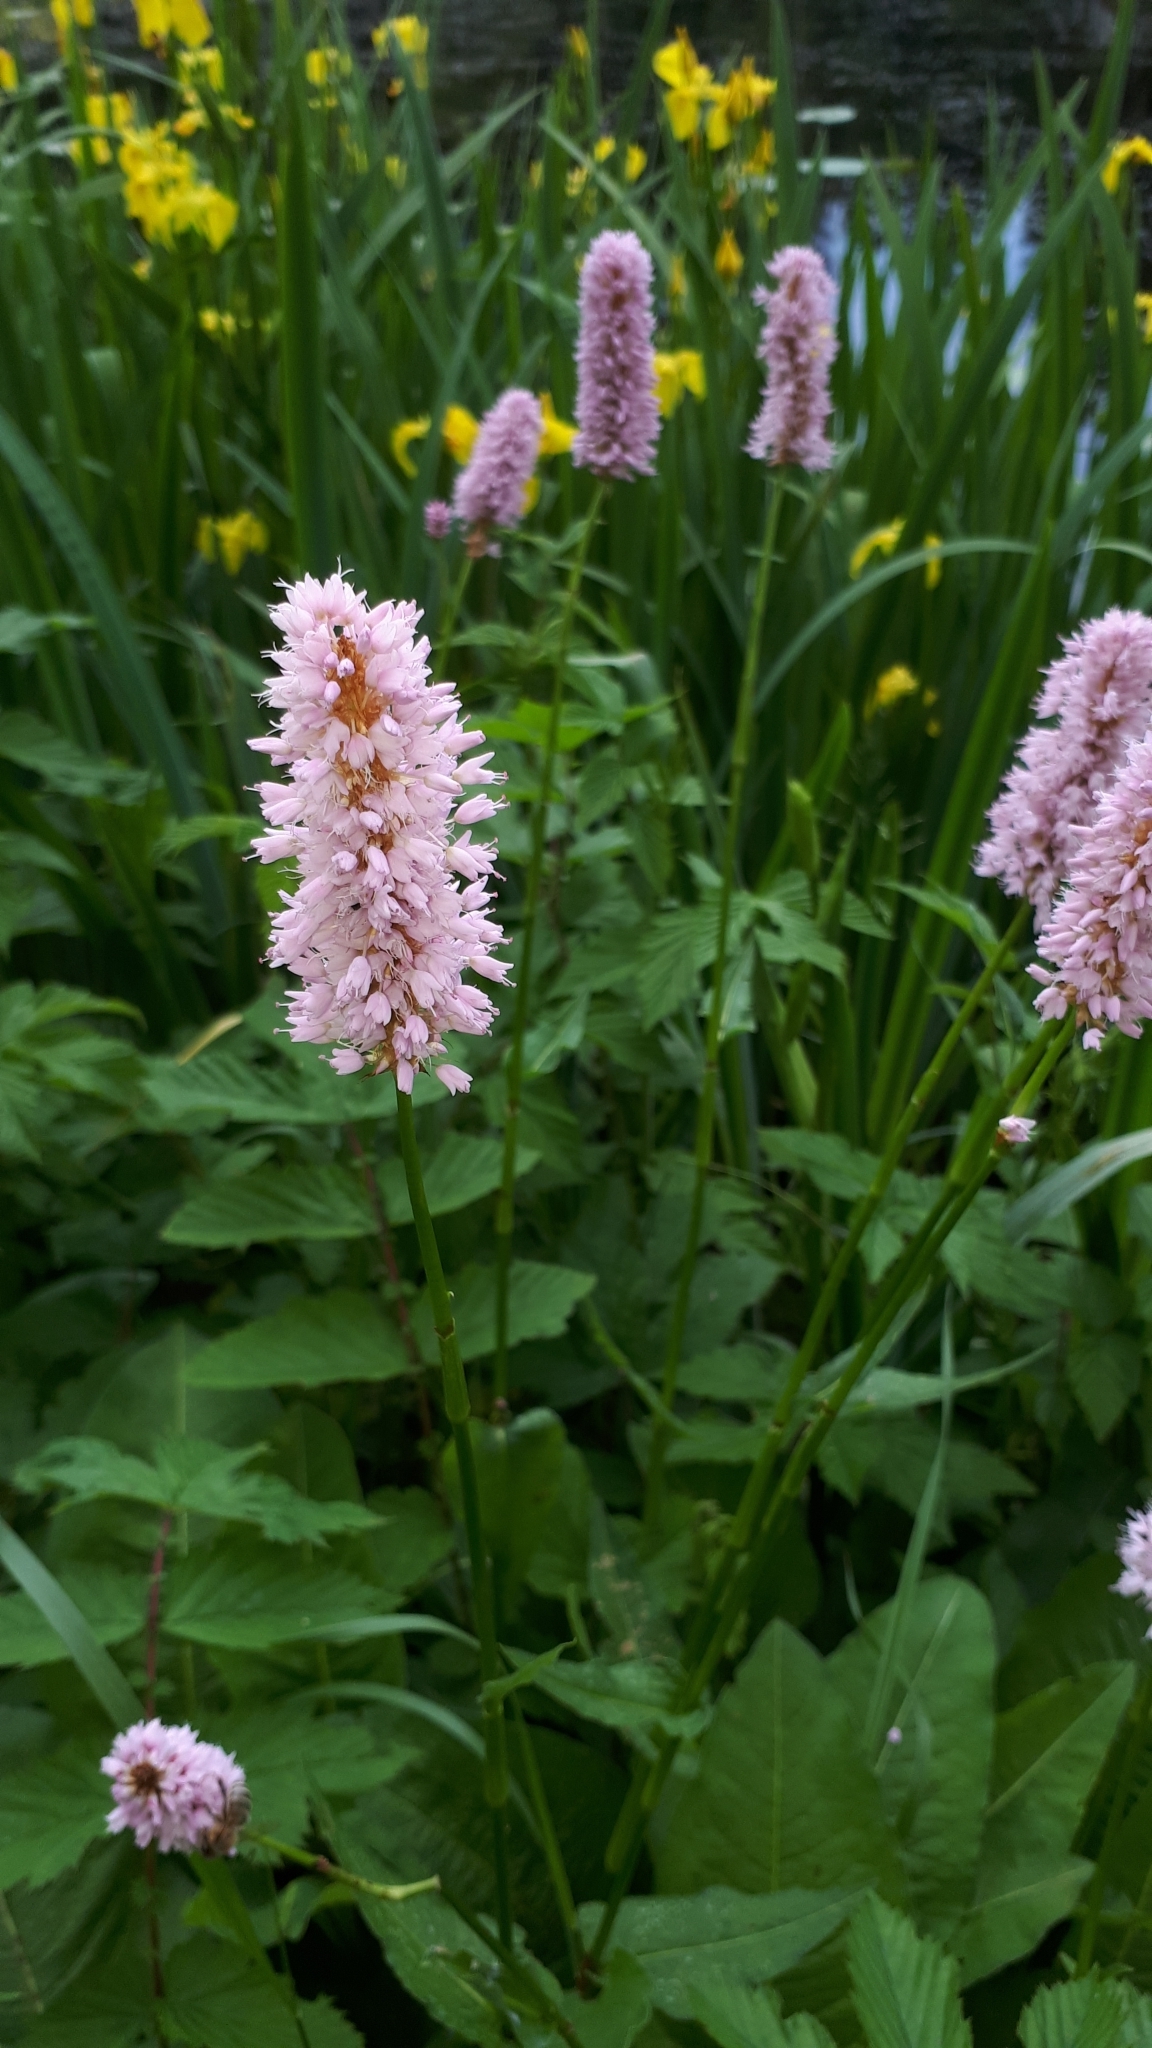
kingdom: Plantae
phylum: Tracheophyta
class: Magnoliopsida
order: Caryophyllales
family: Polygonaceae
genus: Bistorta
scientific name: Bistorta officinalis
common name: Common bistort
